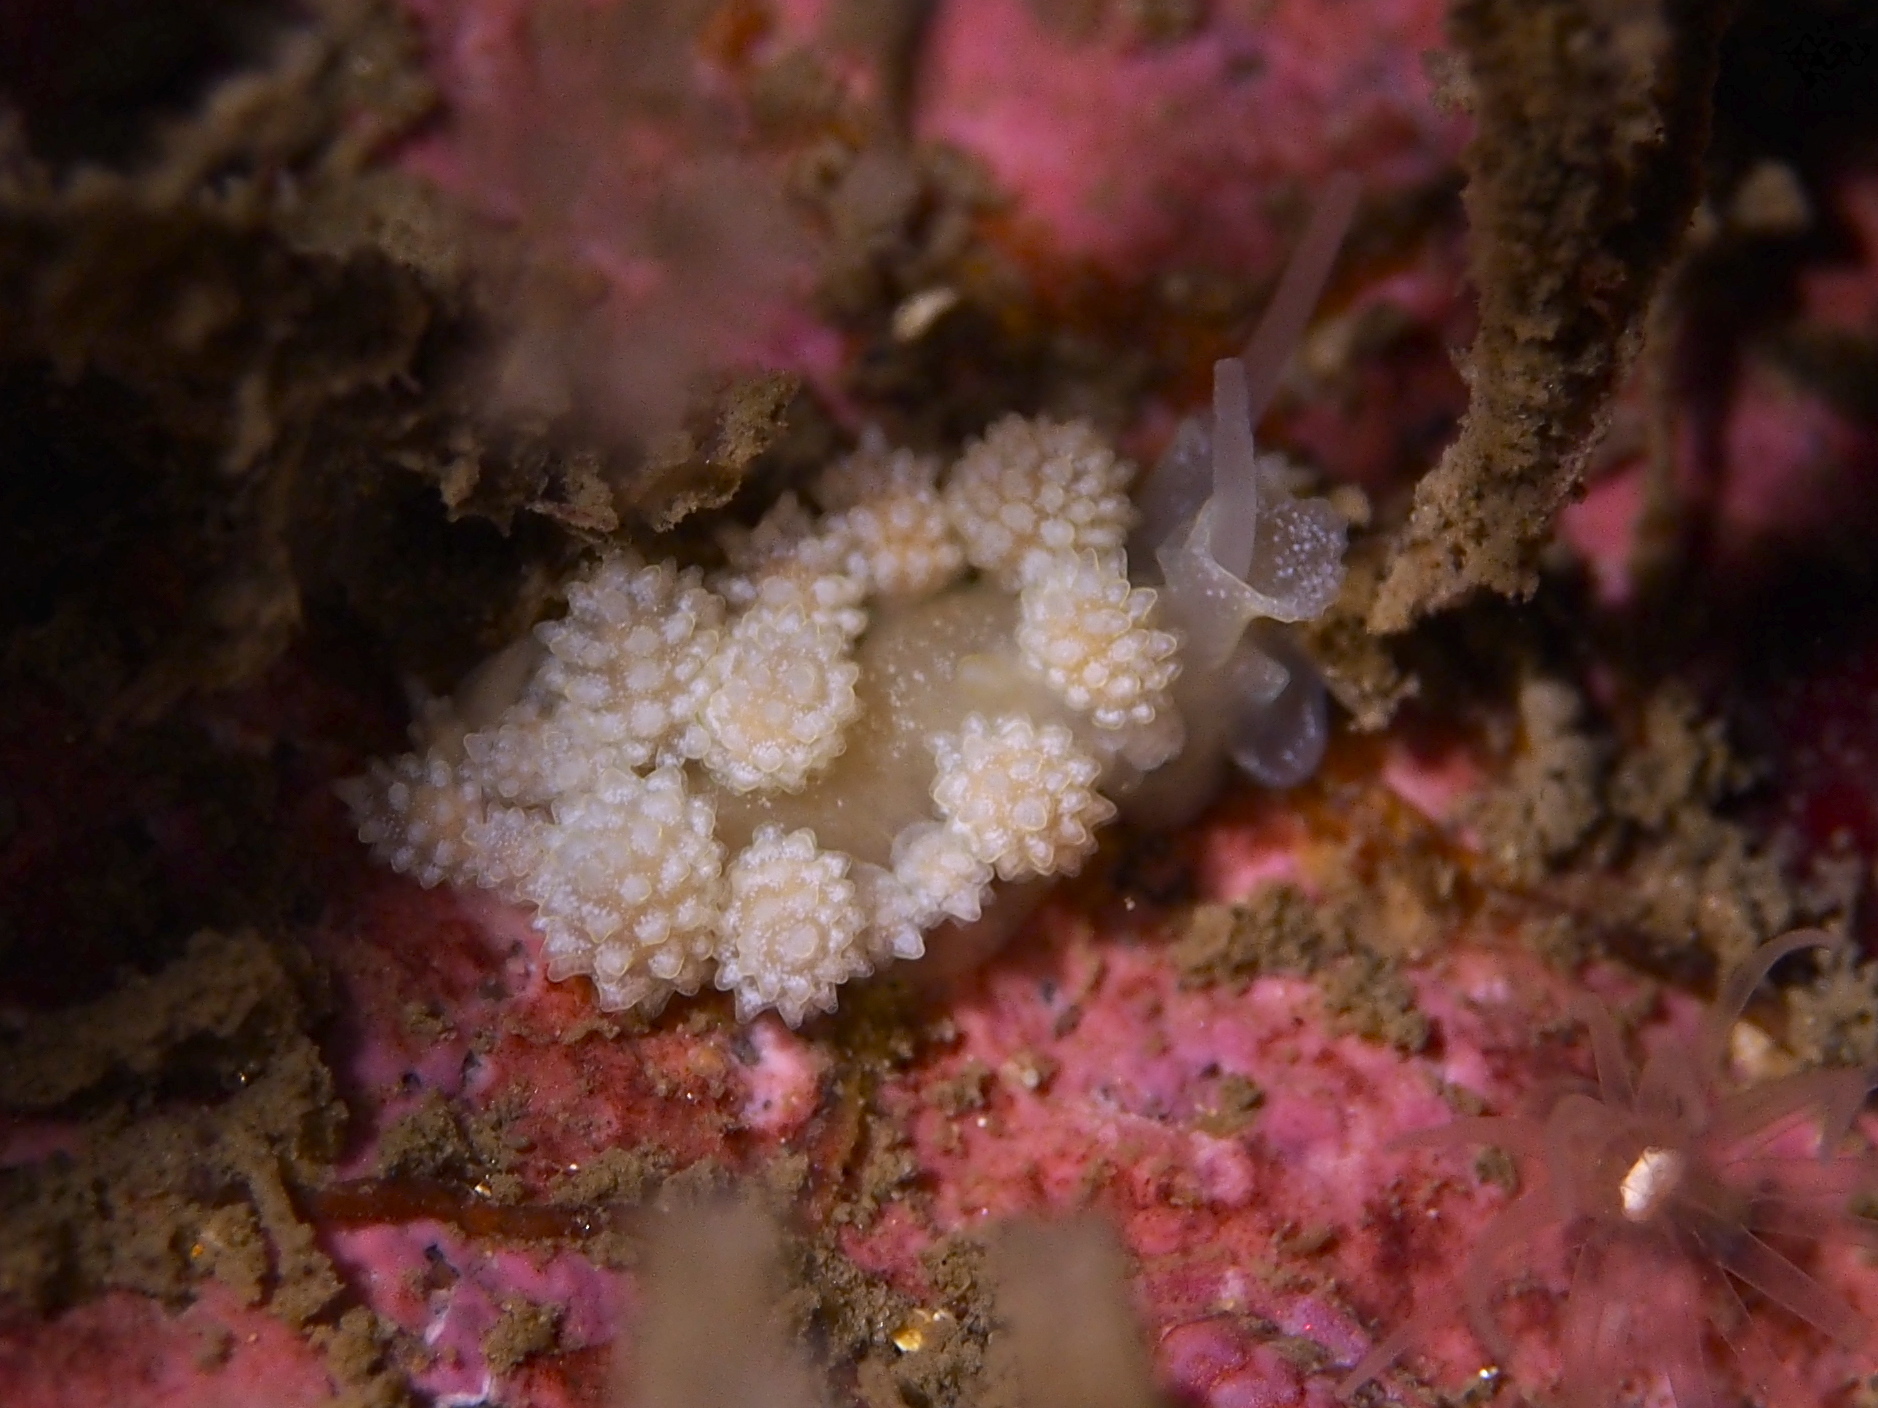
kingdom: Animalia
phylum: Mollusca
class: Gastropoda
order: Nudibranchia
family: Dotidae
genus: Doto
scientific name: Doto fragilis
